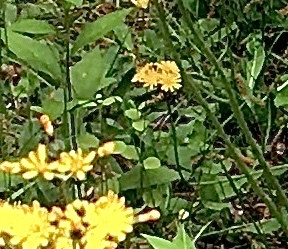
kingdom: Plantae
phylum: Tracheophyta
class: Magnoliopsida
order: Asterales
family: Asteraceae
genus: Pilosella
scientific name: Pilosella caespitosa
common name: Yellow fox-and-cubs
